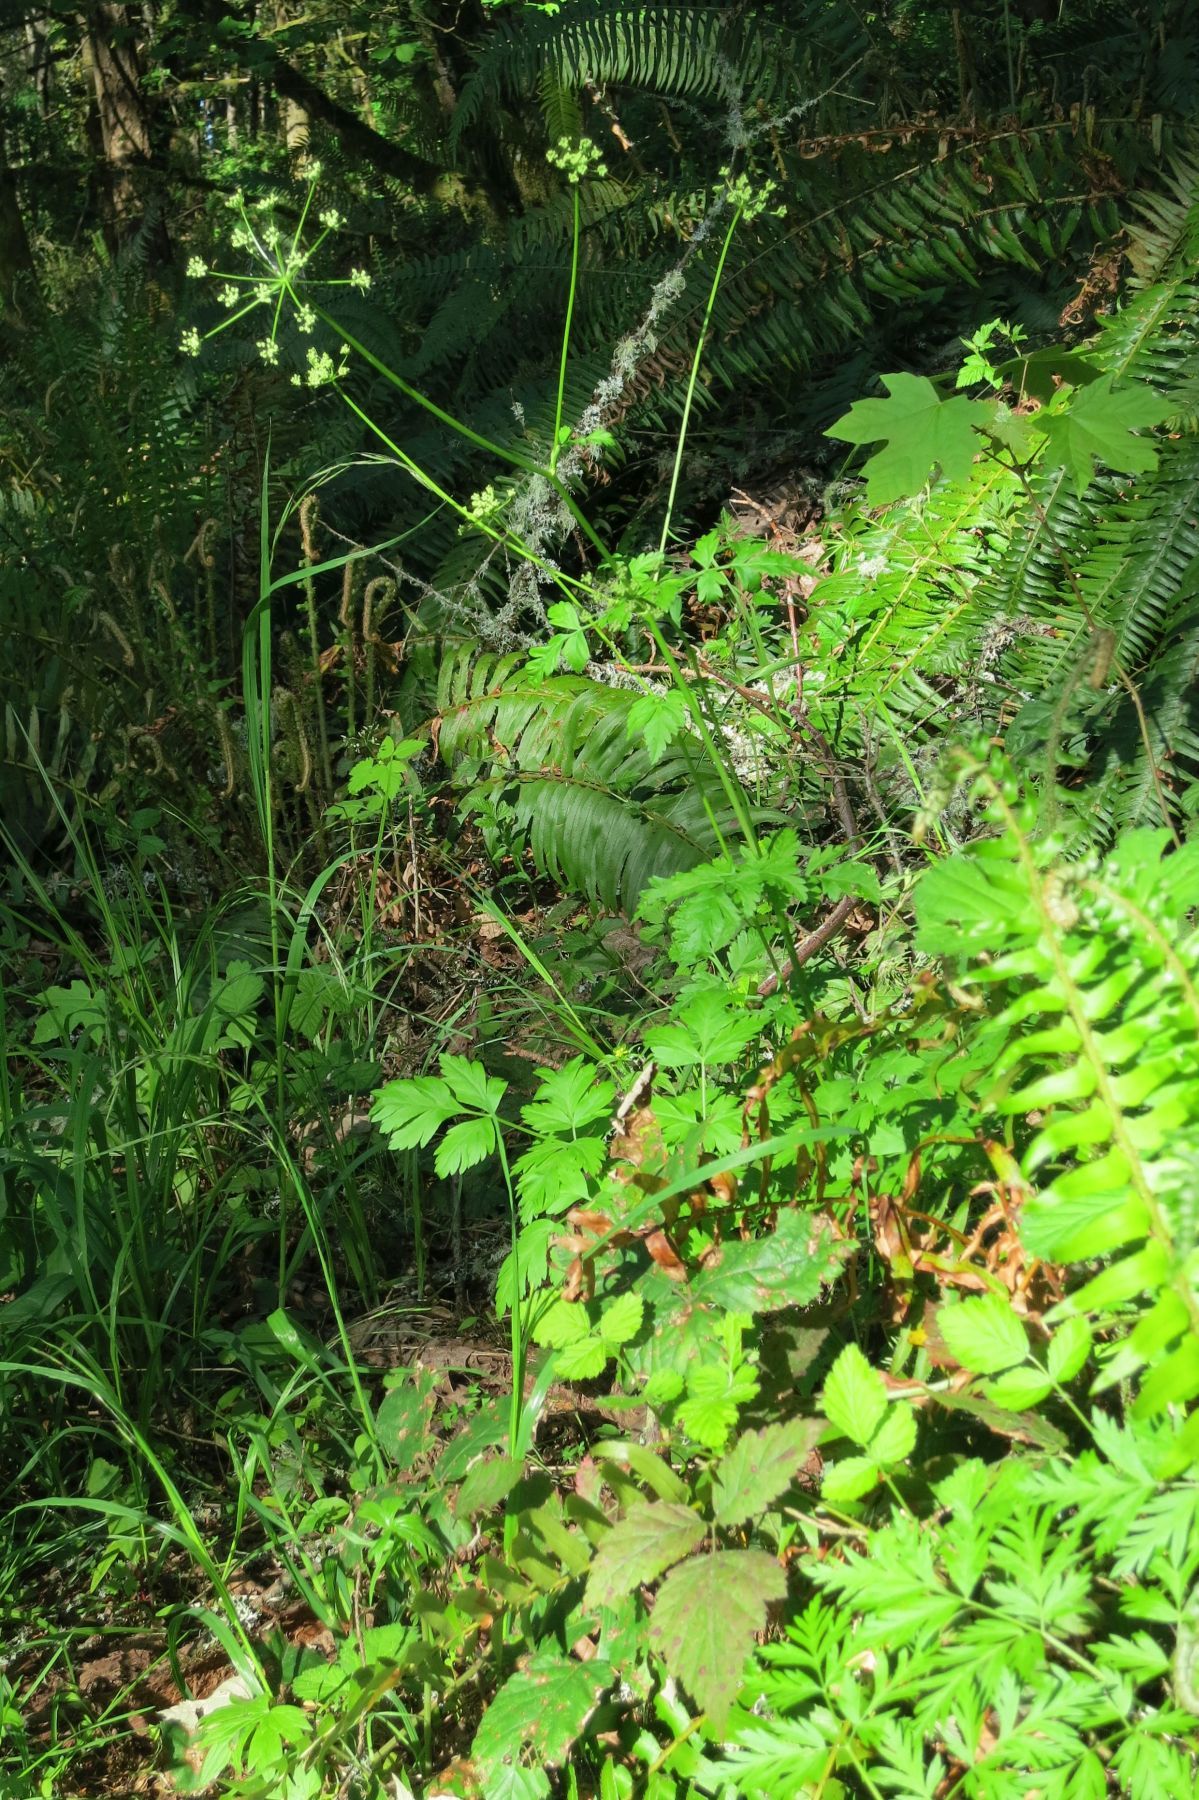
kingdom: Plantae
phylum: Tracheophyta
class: Magnoliopsida
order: Apiales
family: Apiaceae
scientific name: Apiaceae
